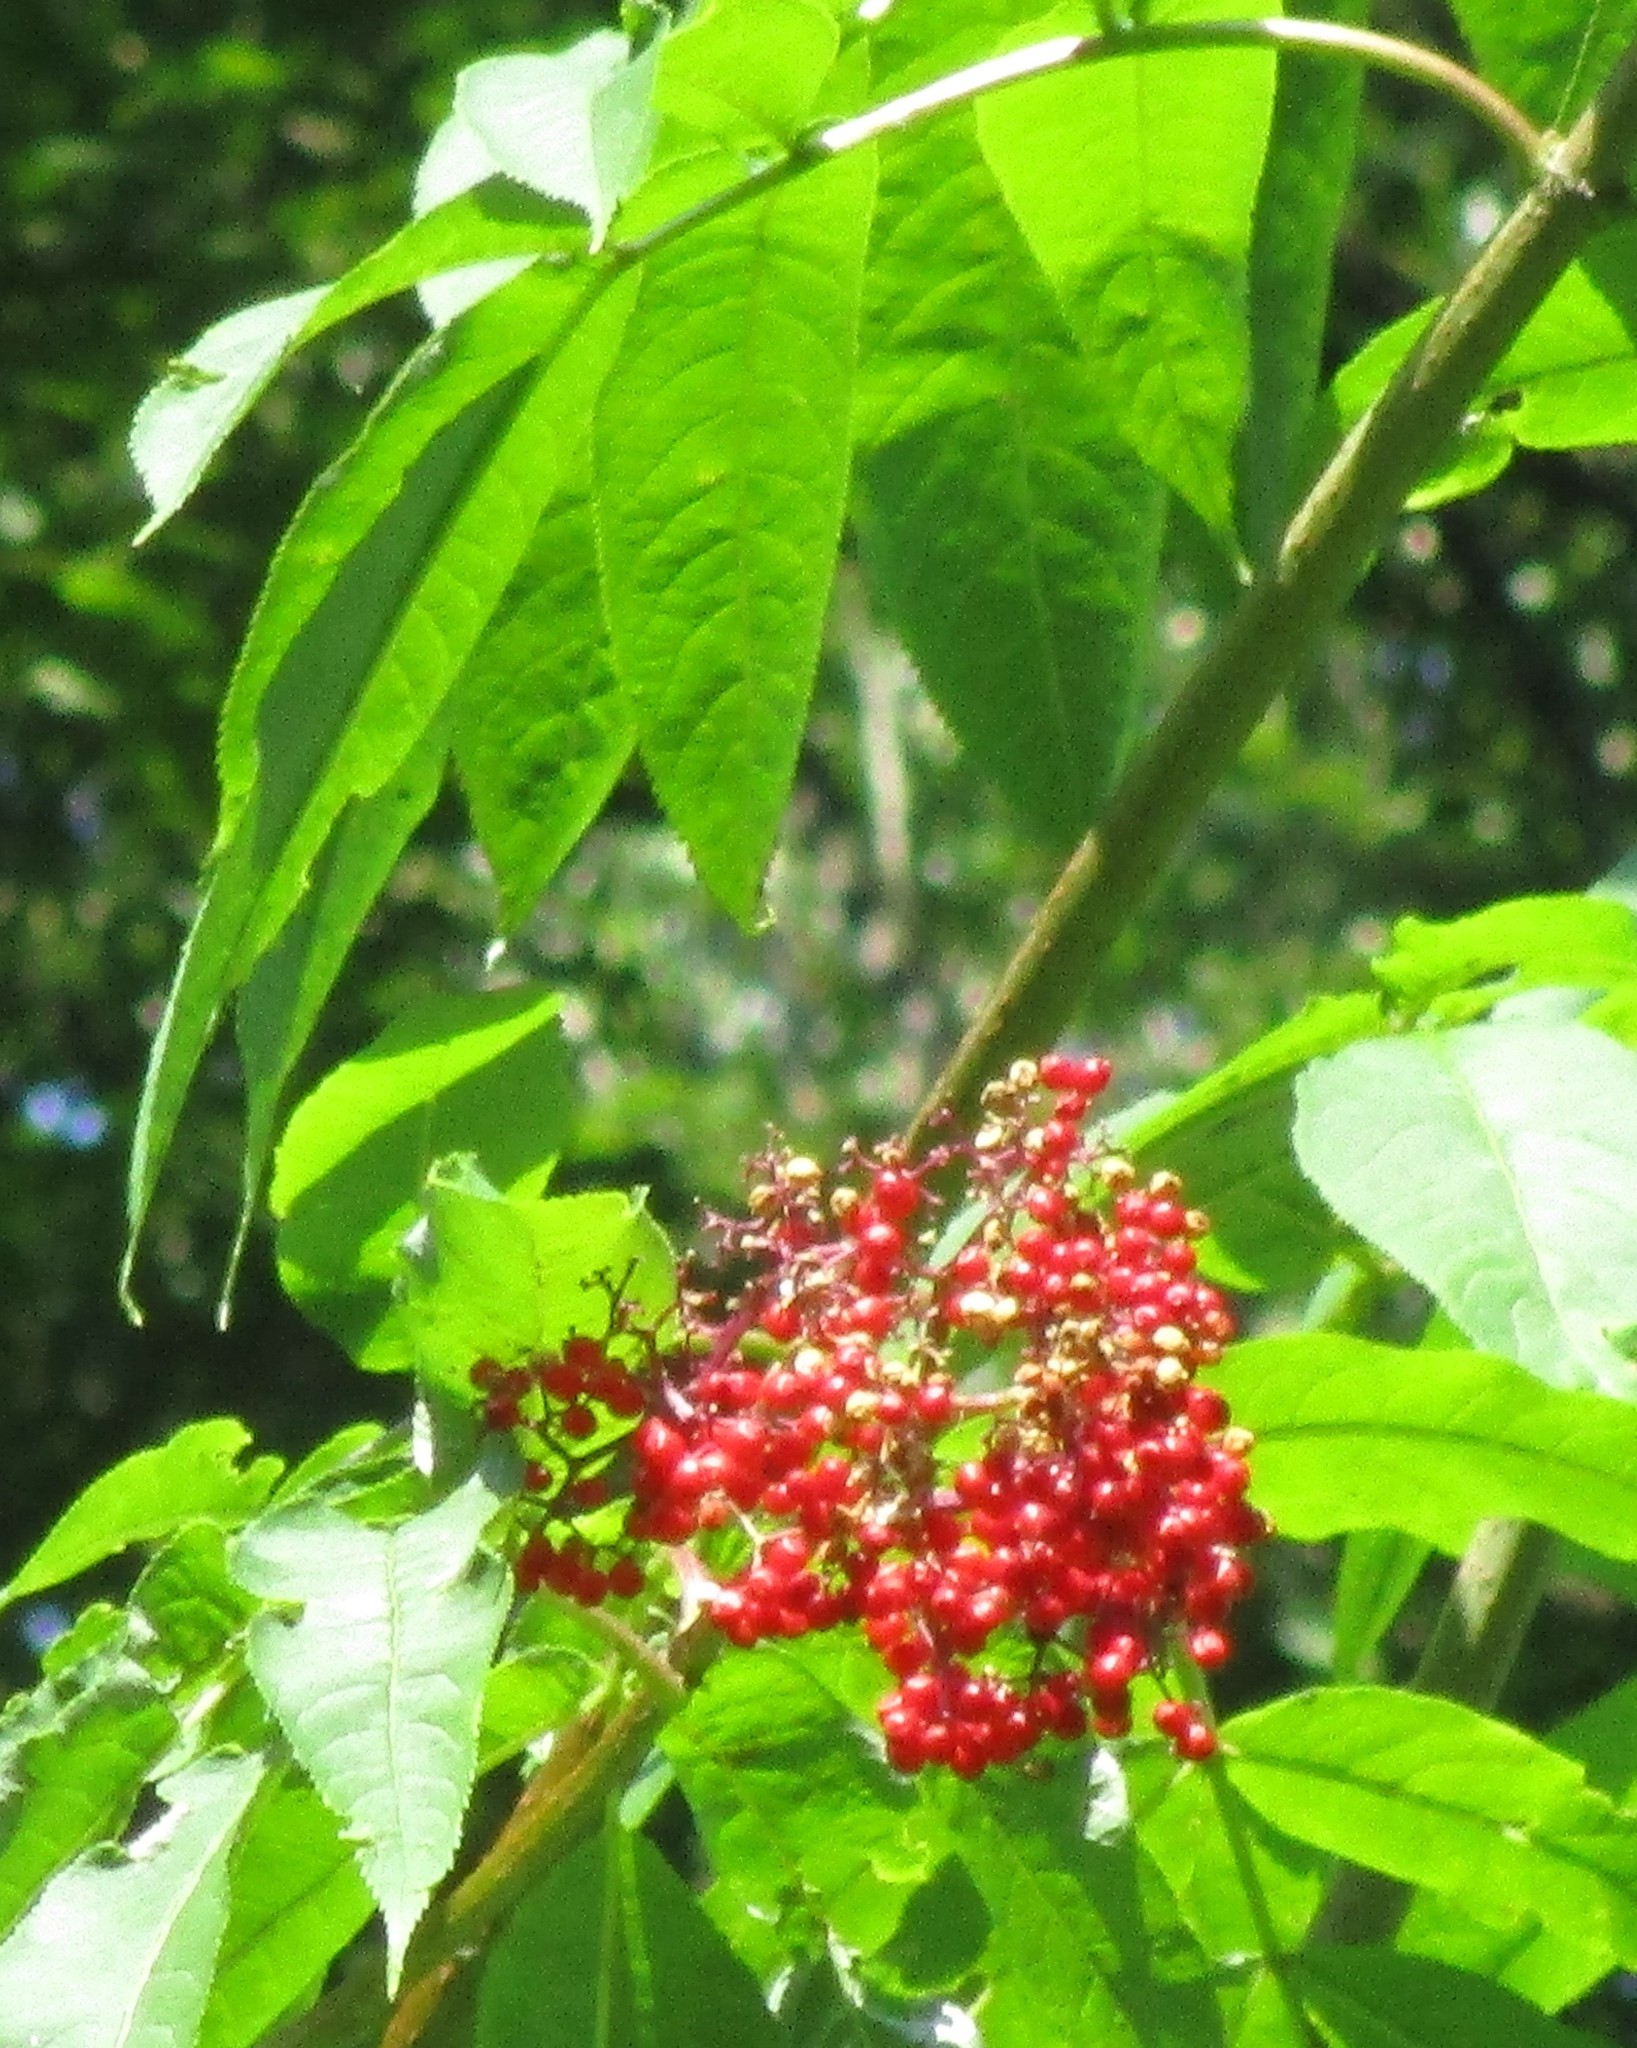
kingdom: Plantae
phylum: Tracheophyta
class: Magnoliopsida
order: Dipsacales
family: Viburnaceae
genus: Sambucus
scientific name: Sambucus racemosa
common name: Red-berried elder
